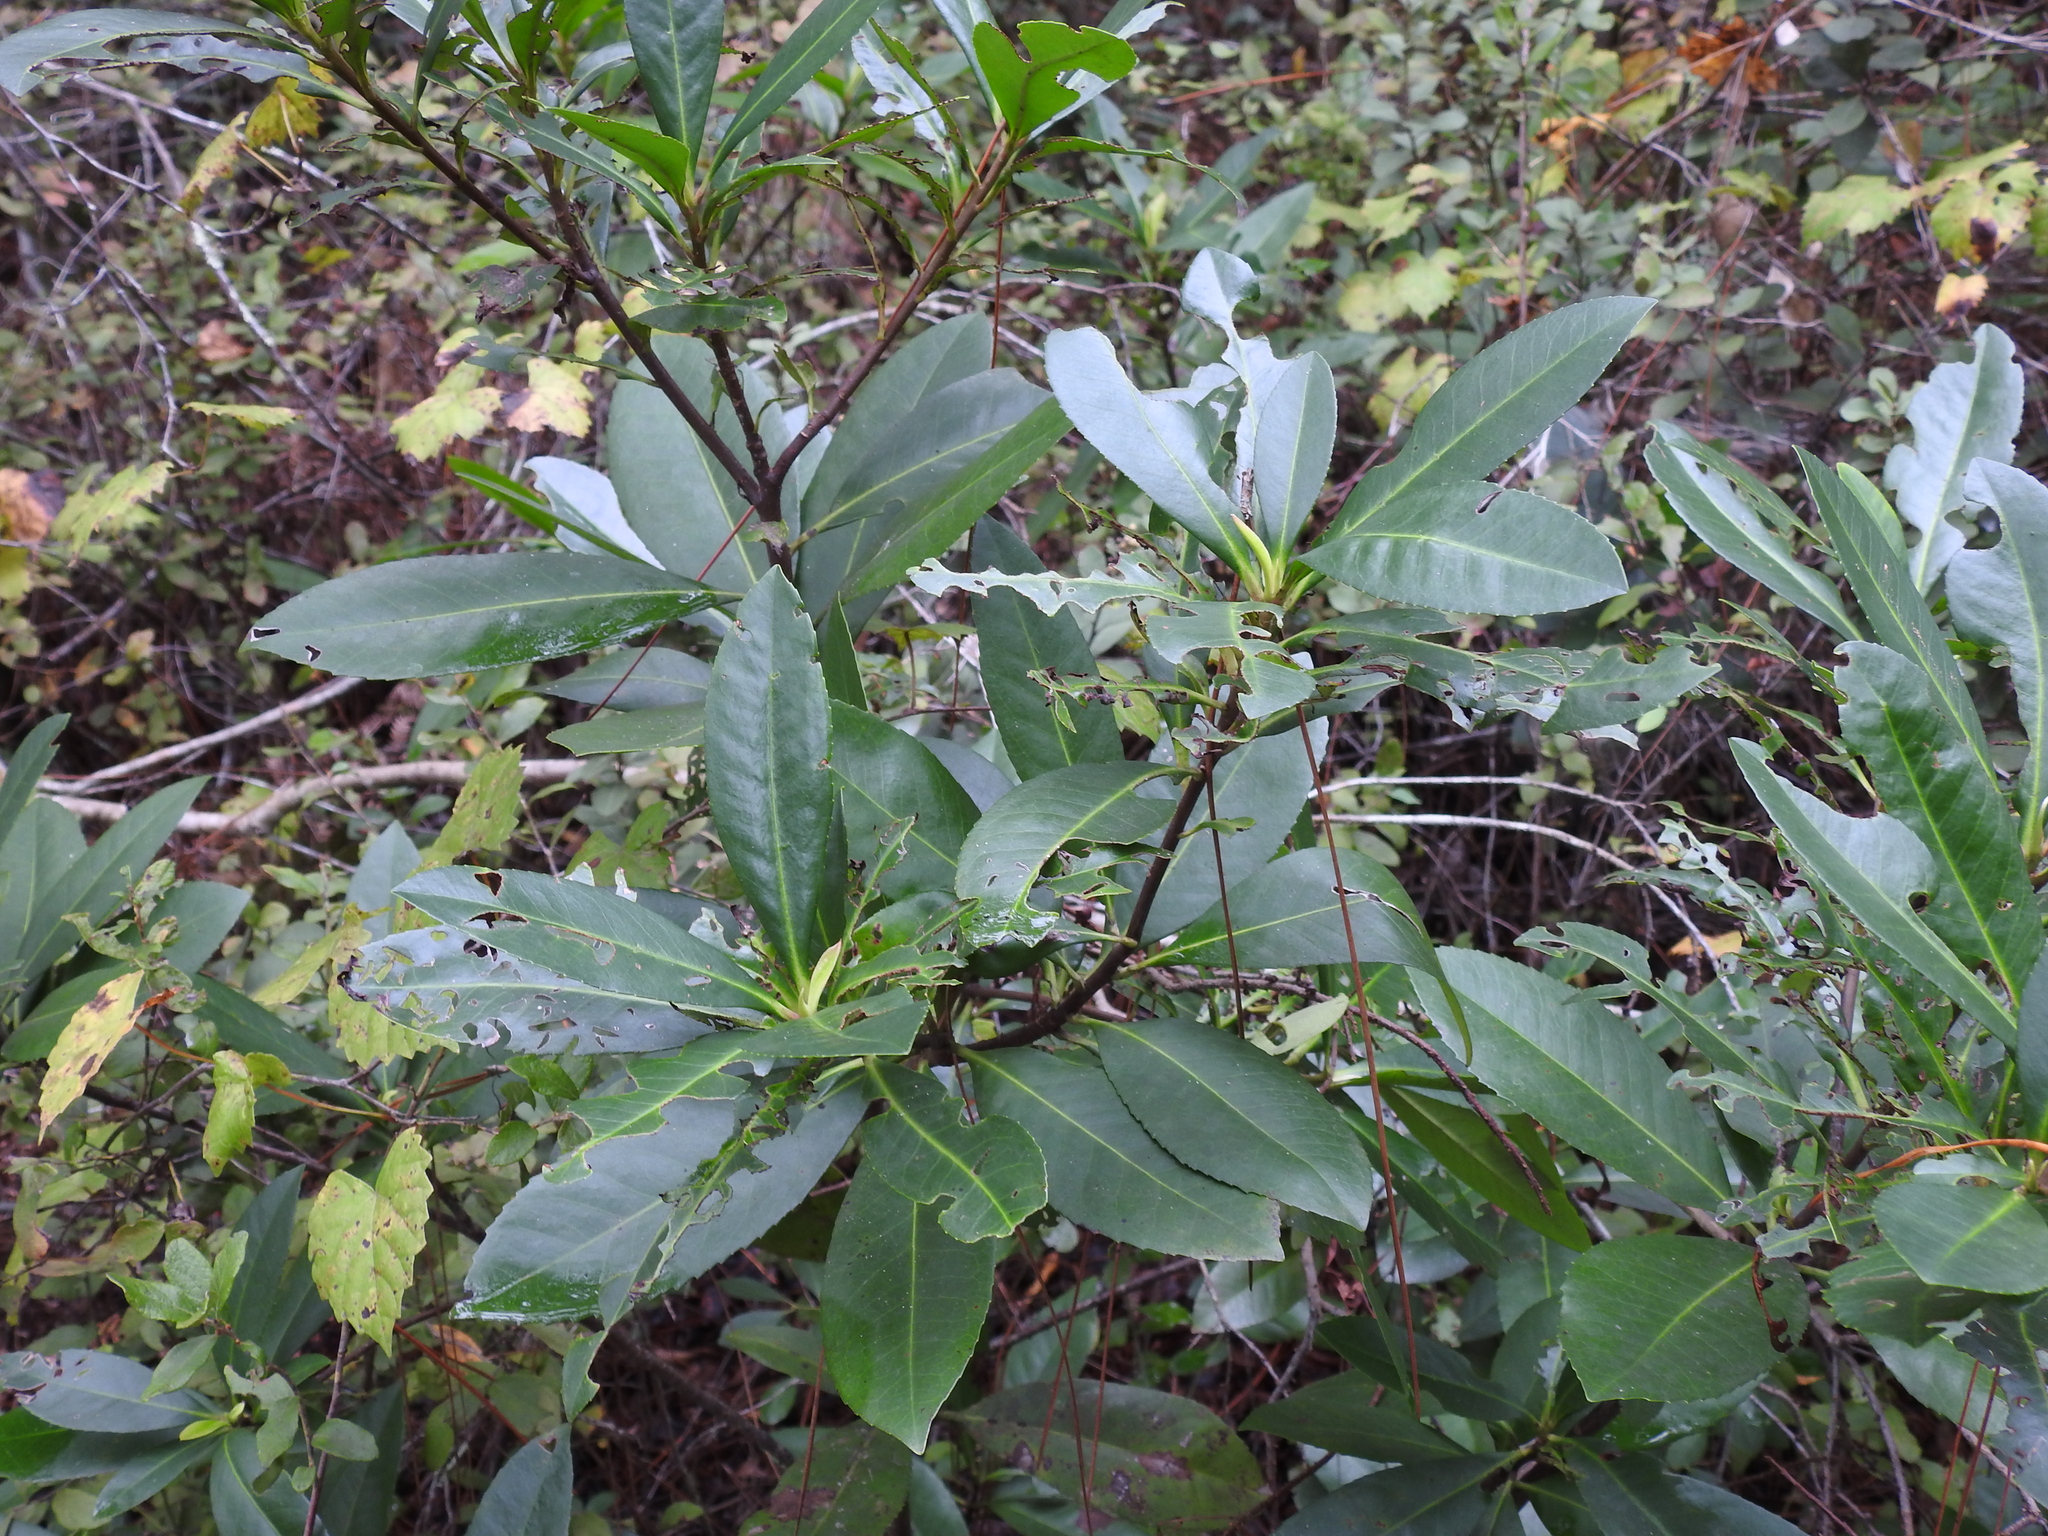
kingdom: Plantae
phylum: Tracheophyta
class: Magnoliopsida
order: Ericales
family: Theaceae
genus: Gordonia
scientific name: Gordonia lasianthus
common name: Loblolly bay
